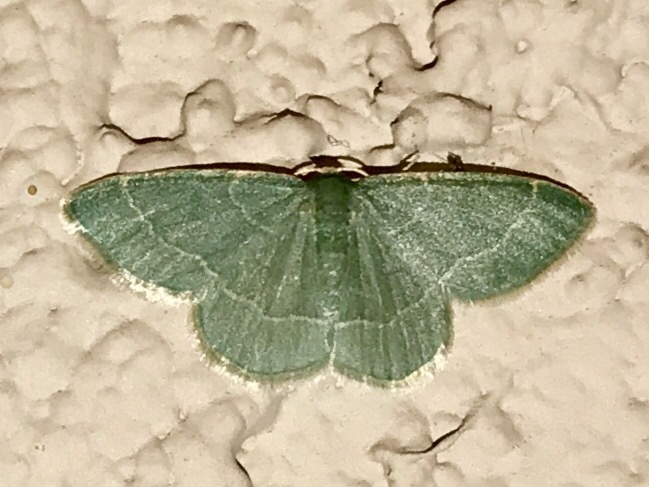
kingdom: Animalia
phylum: Arthropoda
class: Insecta
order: Lepidoptera
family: Geometridae
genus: Synchlora
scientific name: Synchlora aerata
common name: Wavy-lined emerald
